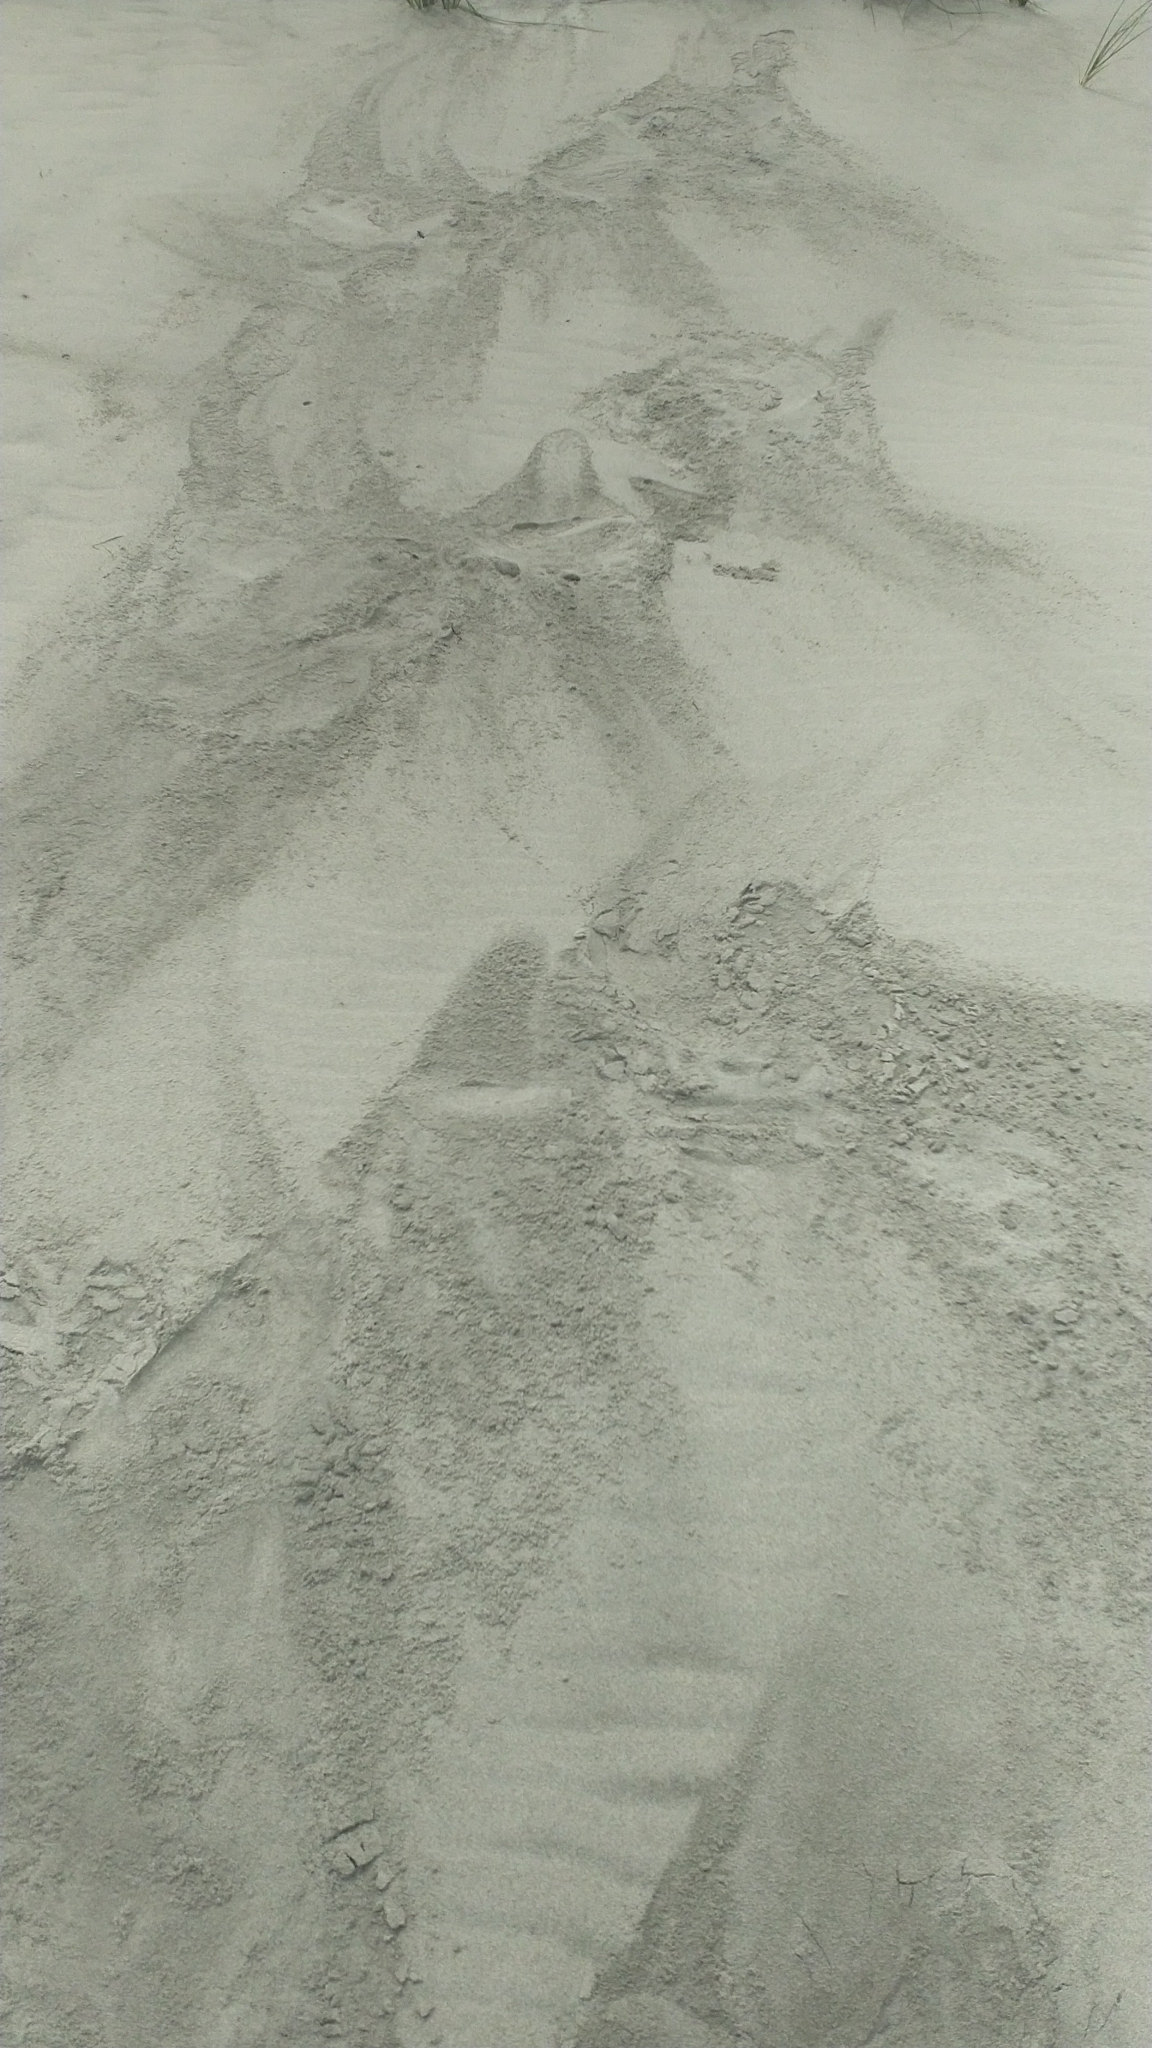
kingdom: Animalia
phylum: Chordata
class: Mammalia
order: Carnivora
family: Otariidae
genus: Phocarctos
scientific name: Phocarctos hookeri
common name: New zealand sea lion
